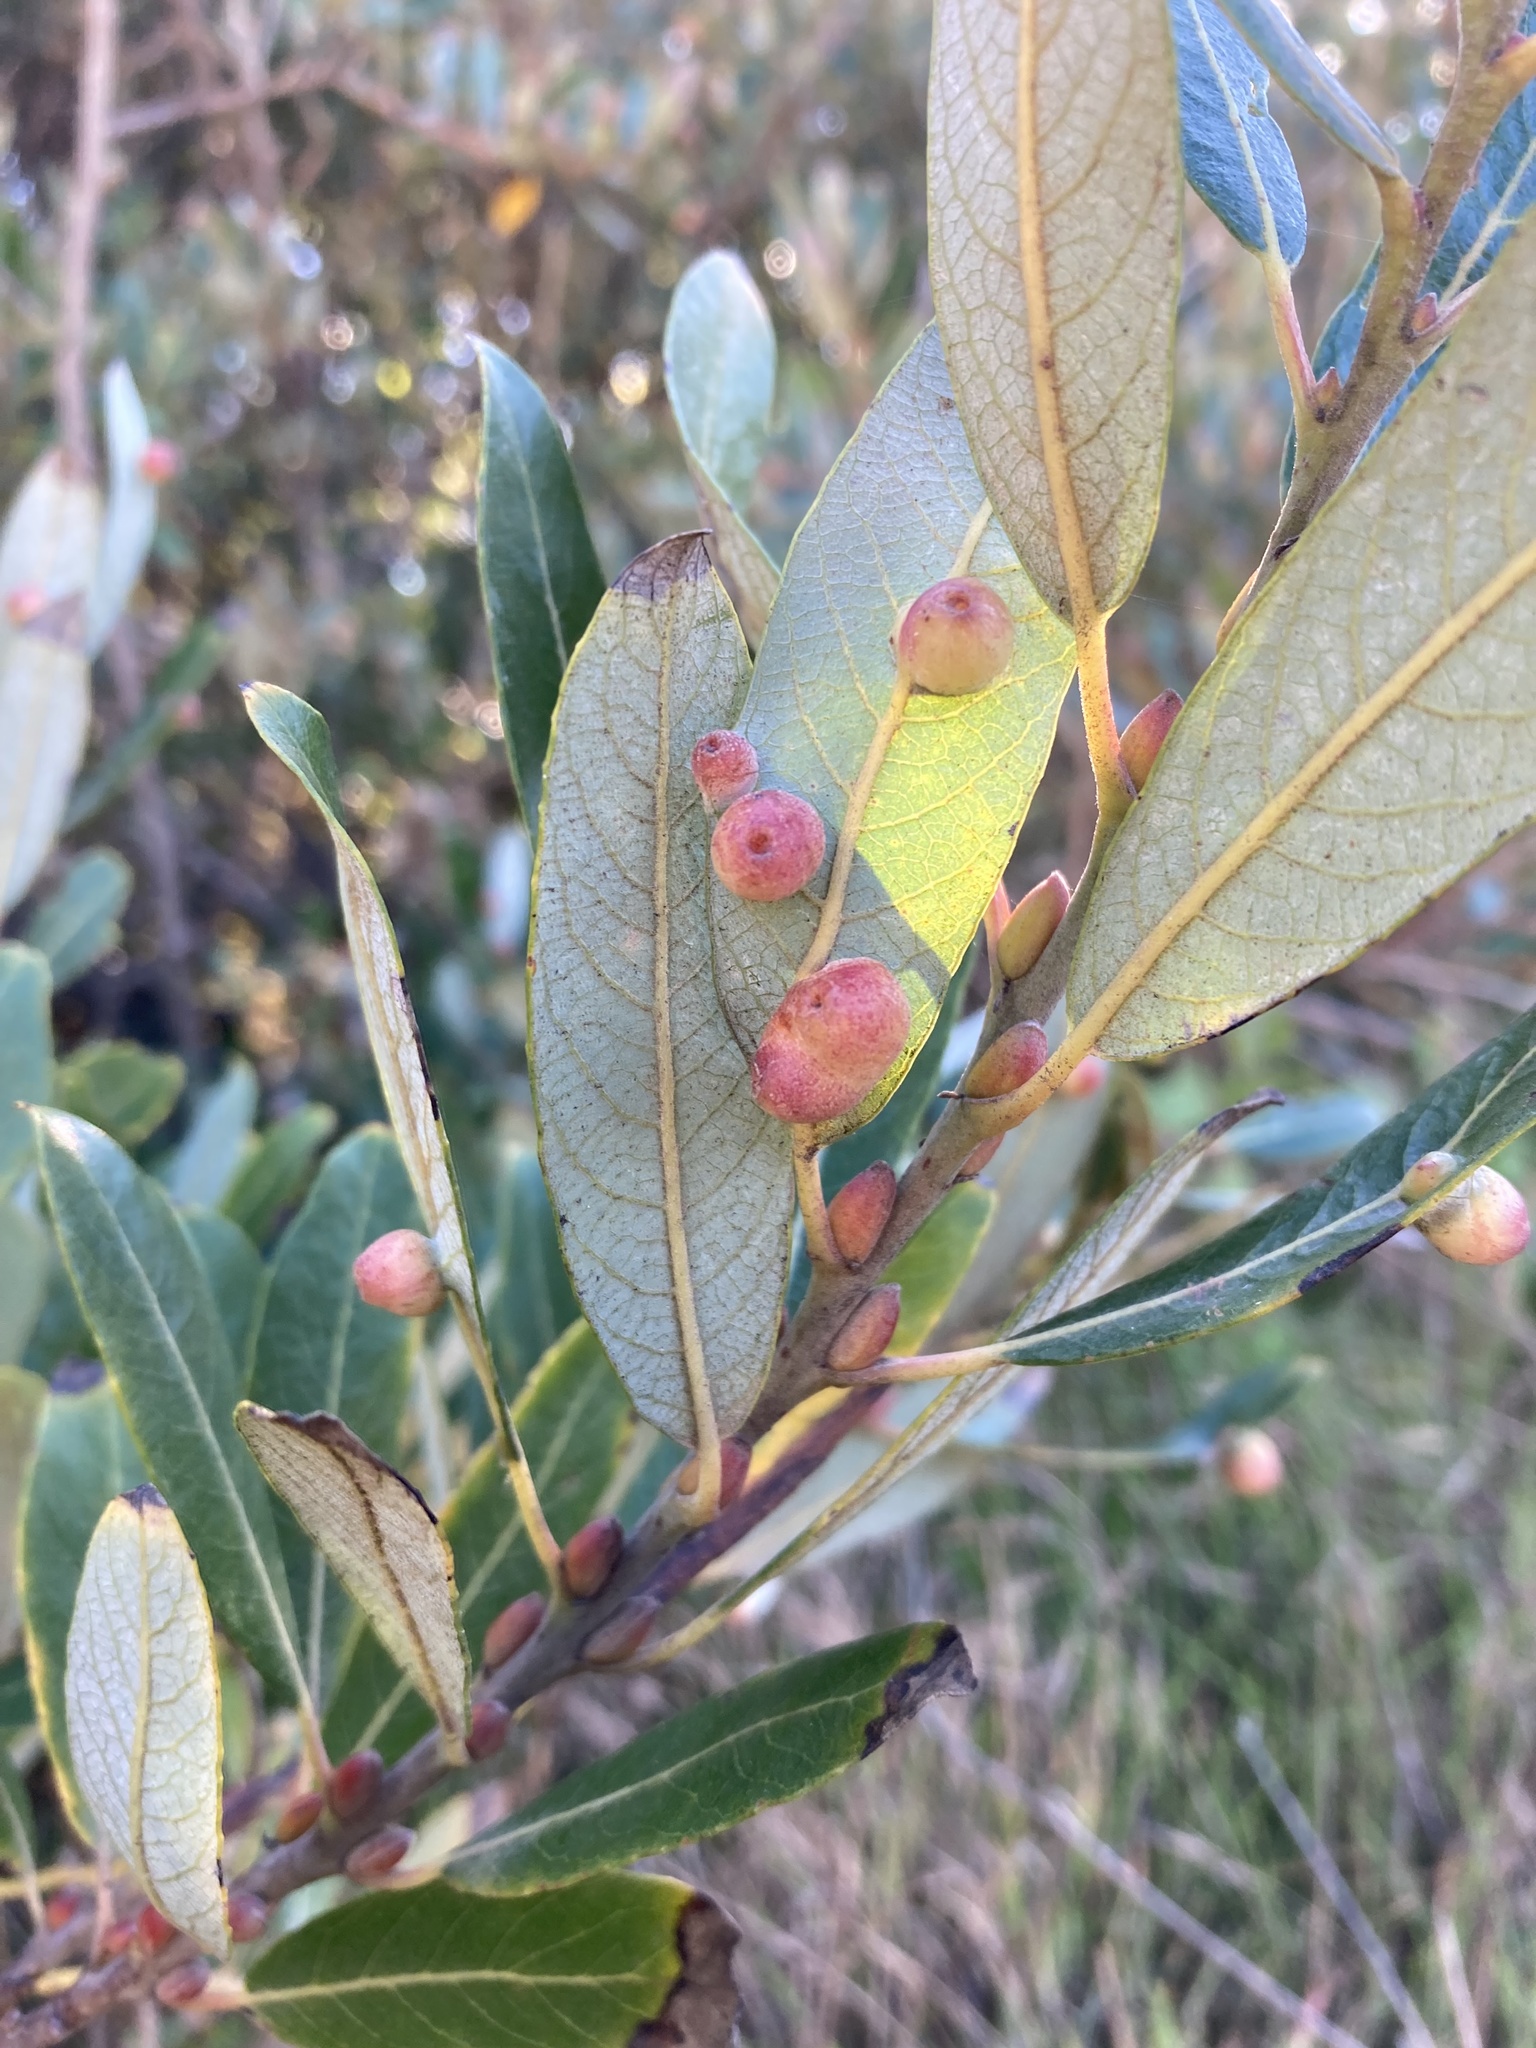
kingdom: Animalia
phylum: Arthropoda
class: Insecta
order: Hymenoptera
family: Tenthredinidae
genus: Euura
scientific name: Euura
